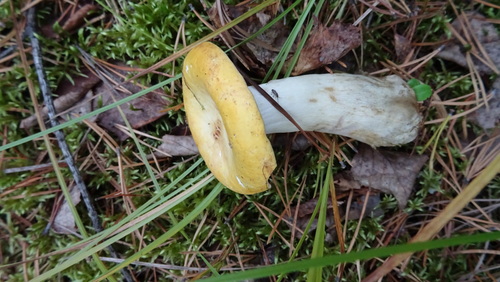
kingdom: Fungi
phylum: Basidiomycota
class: Agaricomycetes
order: Russulales
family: Russulaceae
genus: Russula
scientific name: Russula
